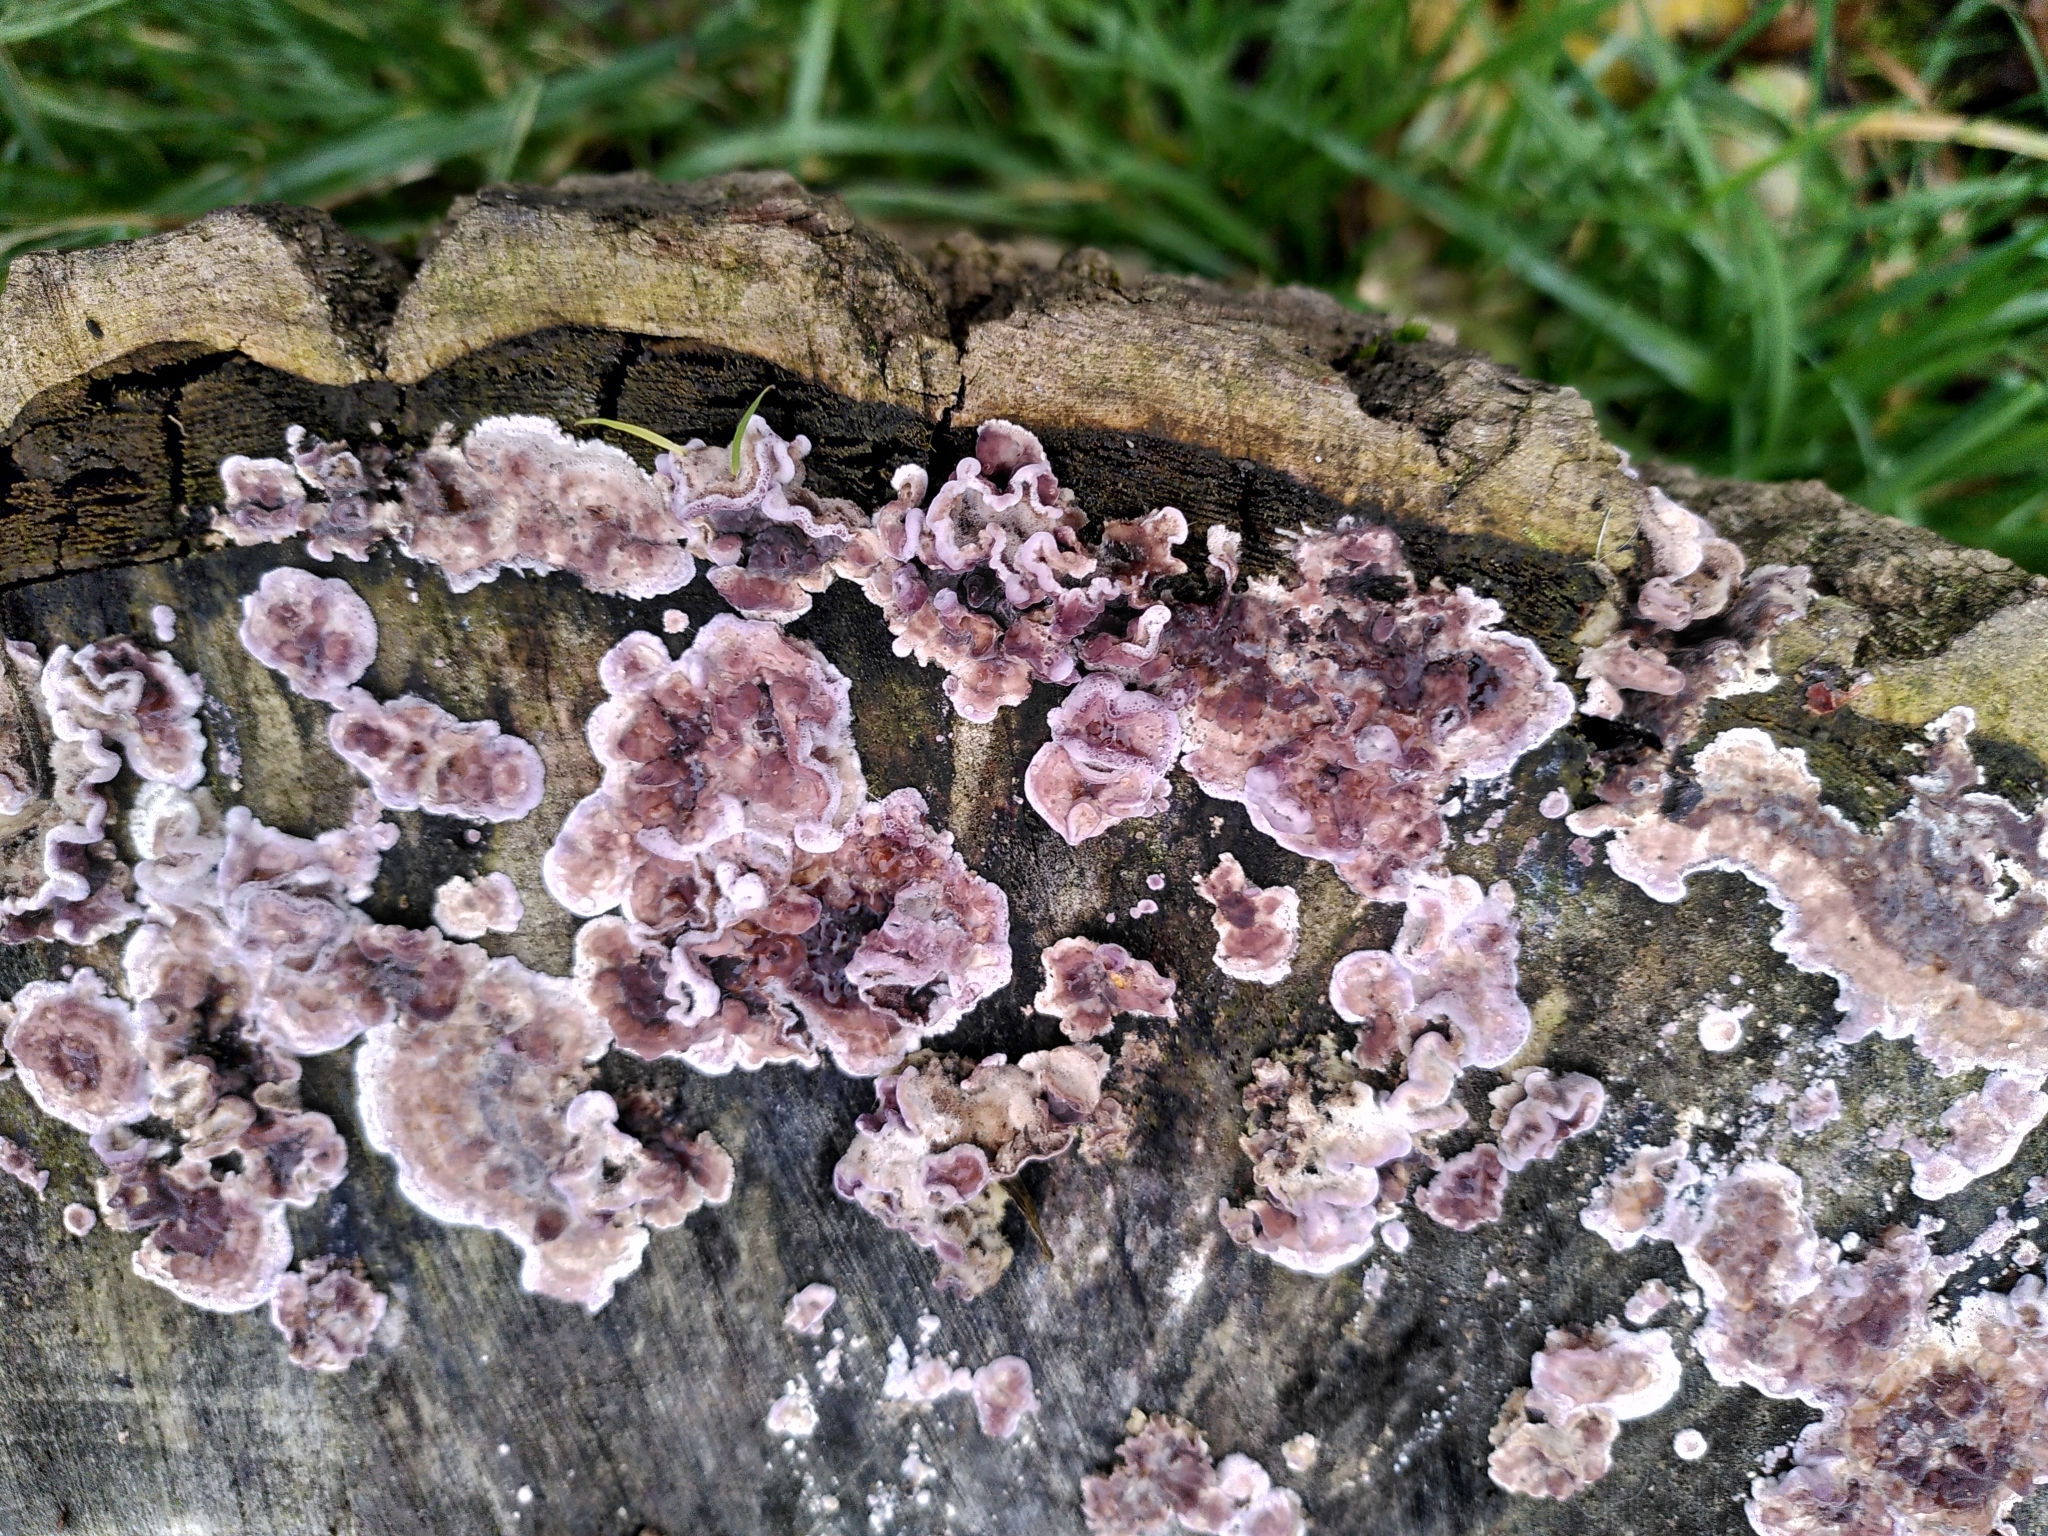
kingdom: Fungi
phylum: Basidiomycota
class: Agaricomycetes
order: Agaricales
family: Cyphellaceae
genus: Chondrostereum
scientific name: Chondrostereum purpureum
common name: Silver leaf disease
